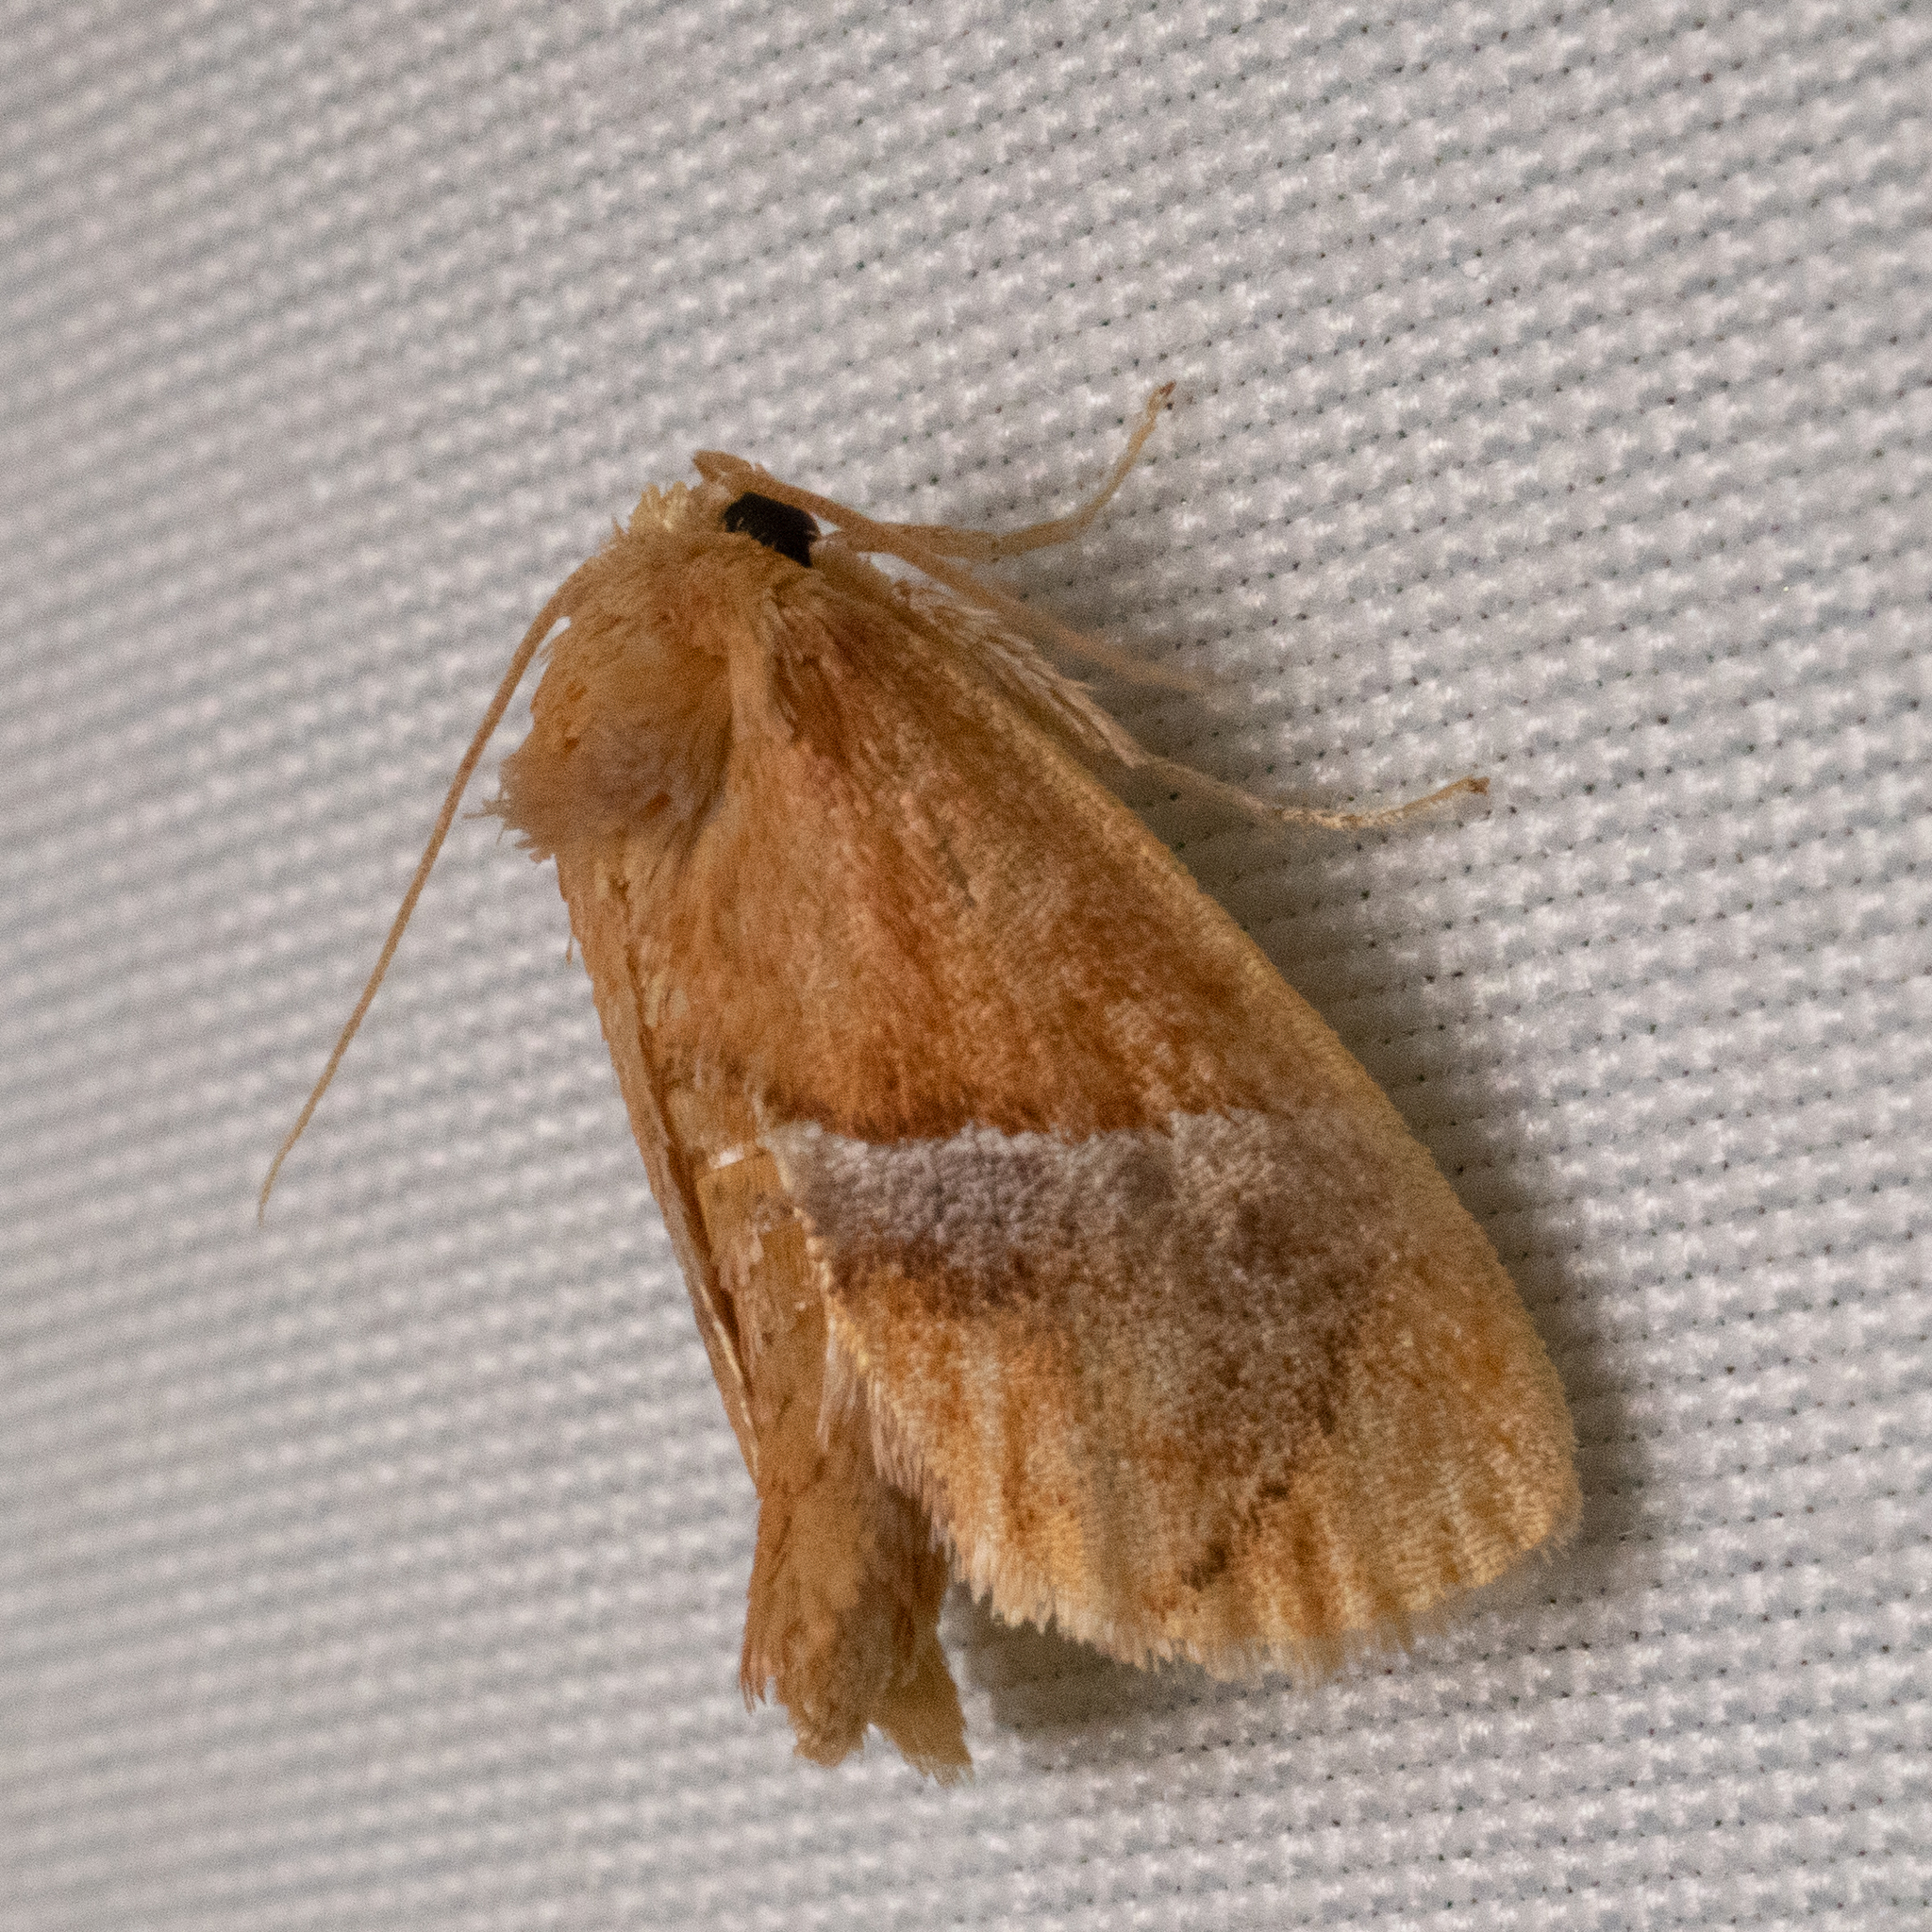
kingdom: Animalia
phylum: Arthropoda
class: Insecta
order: Lepidoptera
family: Limacodidae
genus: Lithacodes
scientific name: Lithacodes fasciola
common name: Yellow-shouldered slug moth
